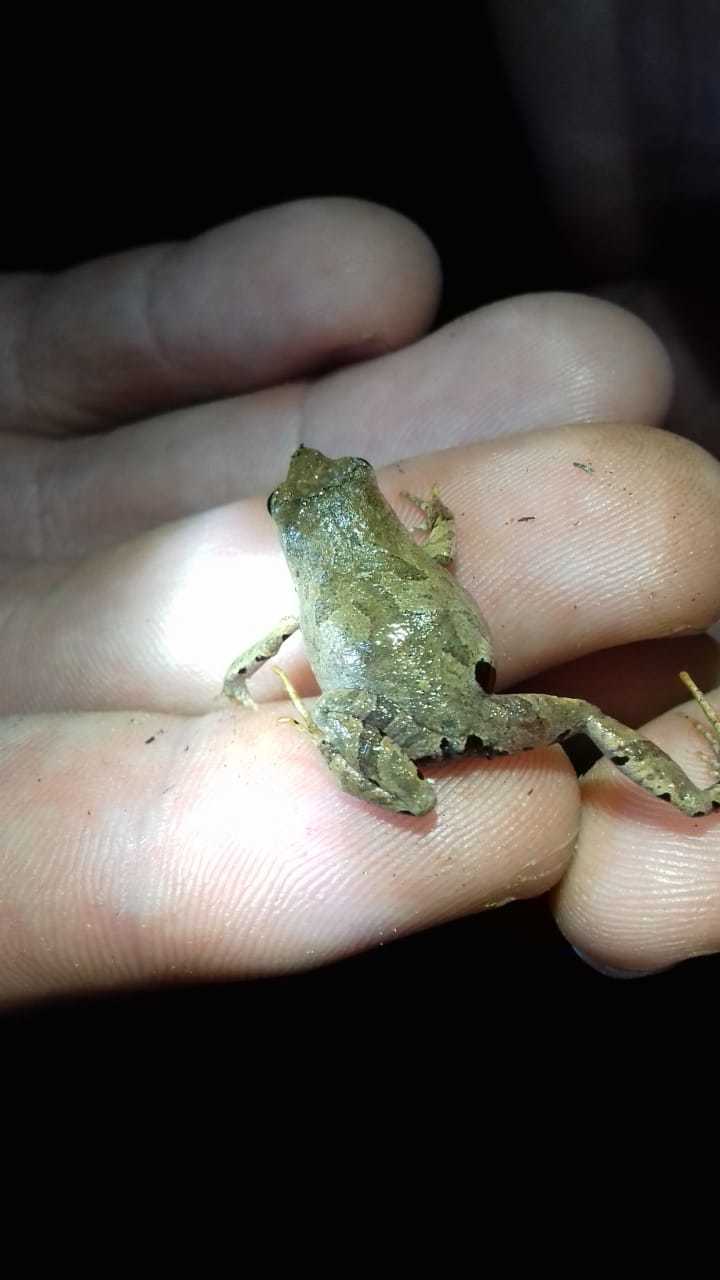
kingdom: Animalia
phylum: Chordata
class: Amphibia
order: Anura
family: Leptodactylidae
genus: Physalaemus
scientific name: Physalaemus nanus
